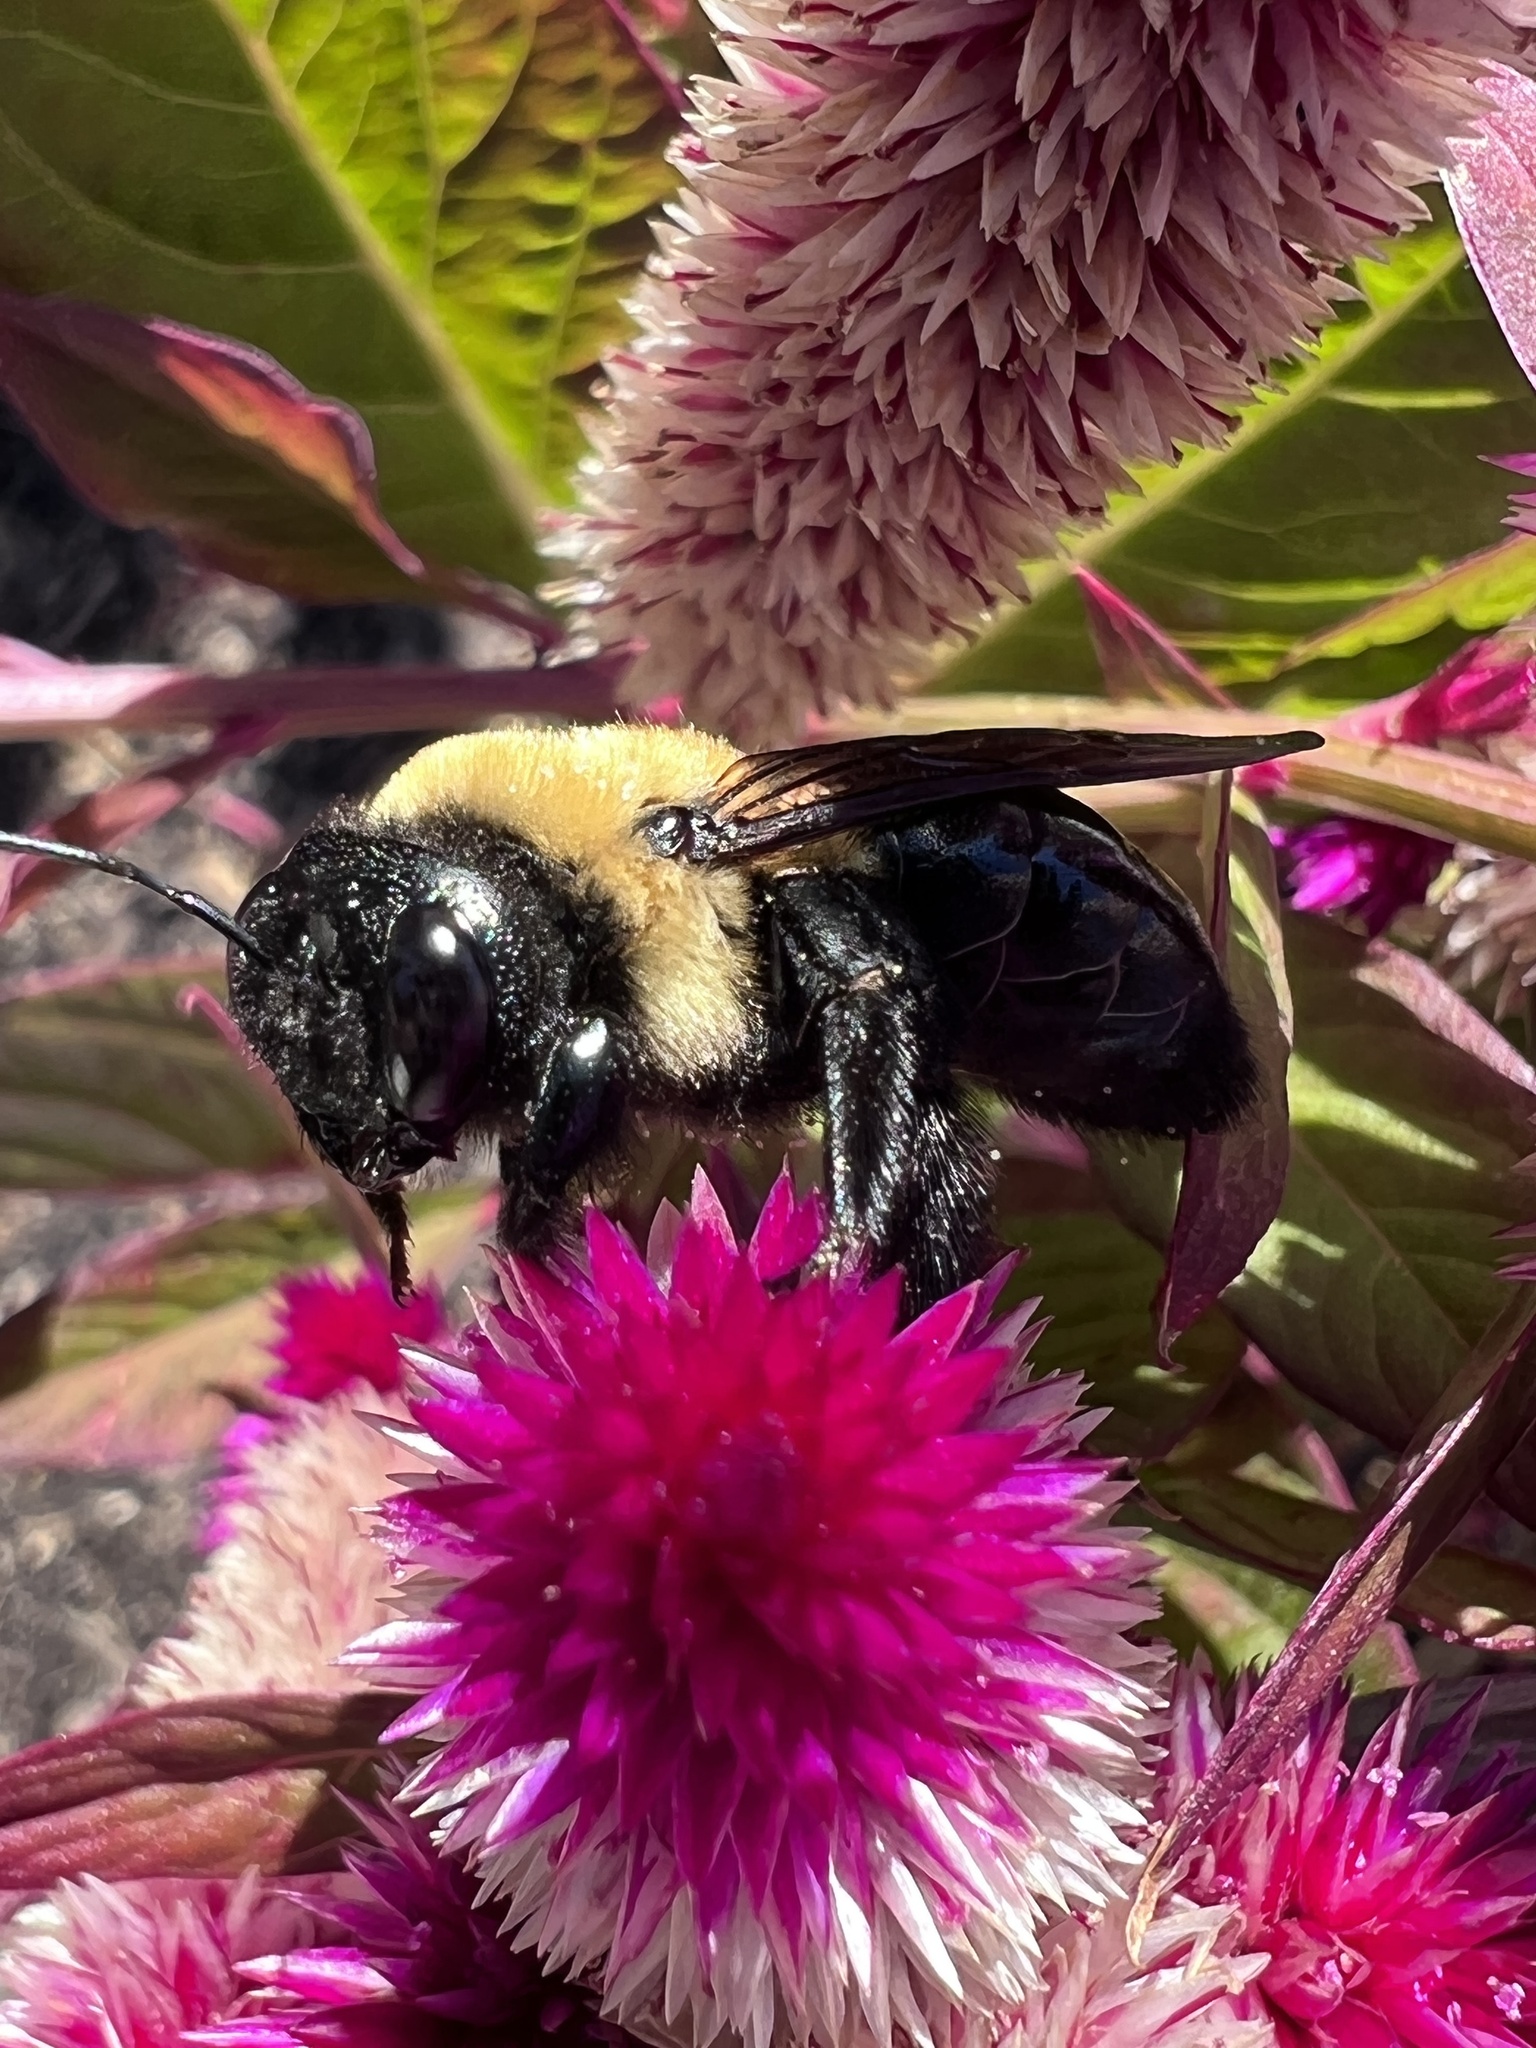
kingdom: Animalia
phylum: Arthropoda
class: Insecta
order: Hymenoptera
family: Apidae
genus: Xylocopa
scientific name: Xylocopa virginica
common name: Carpenter bee
